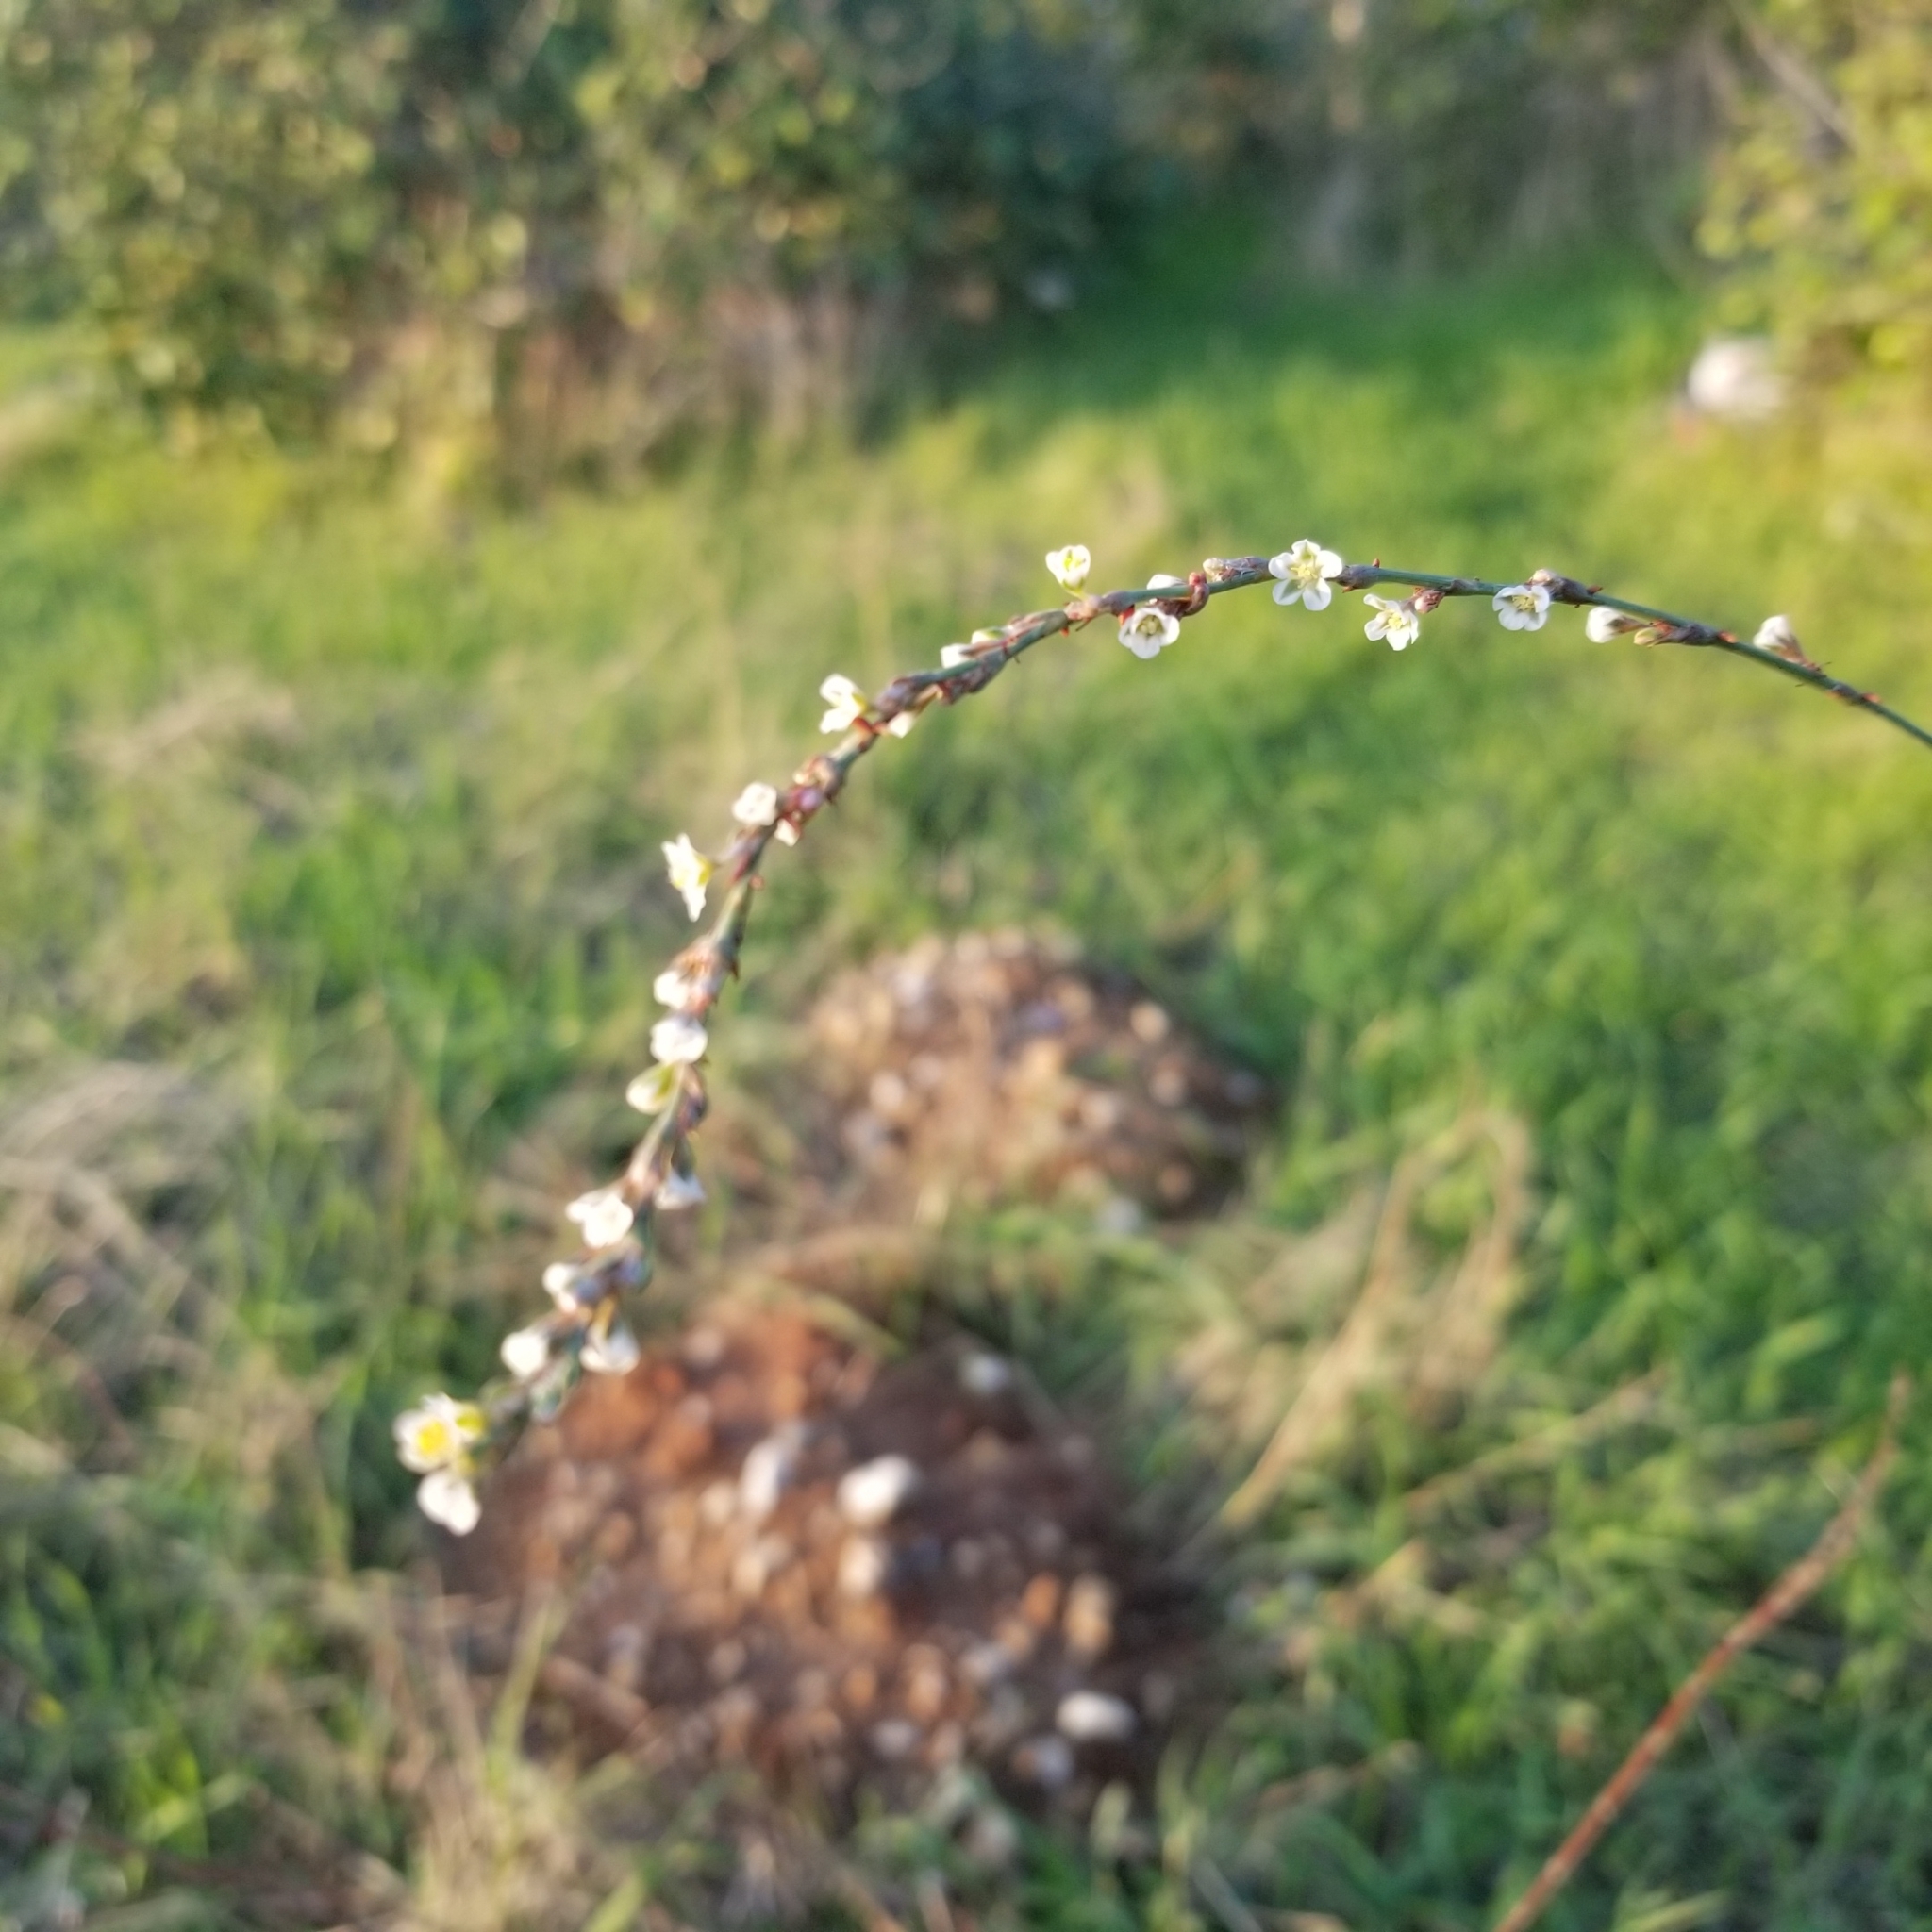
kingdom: Plantae
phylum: Tracheophyta
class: Magnoliopsida
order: Caryophyllales
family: Polygonaceae
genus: Polygonum
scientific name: Polygonum equisetiforme
